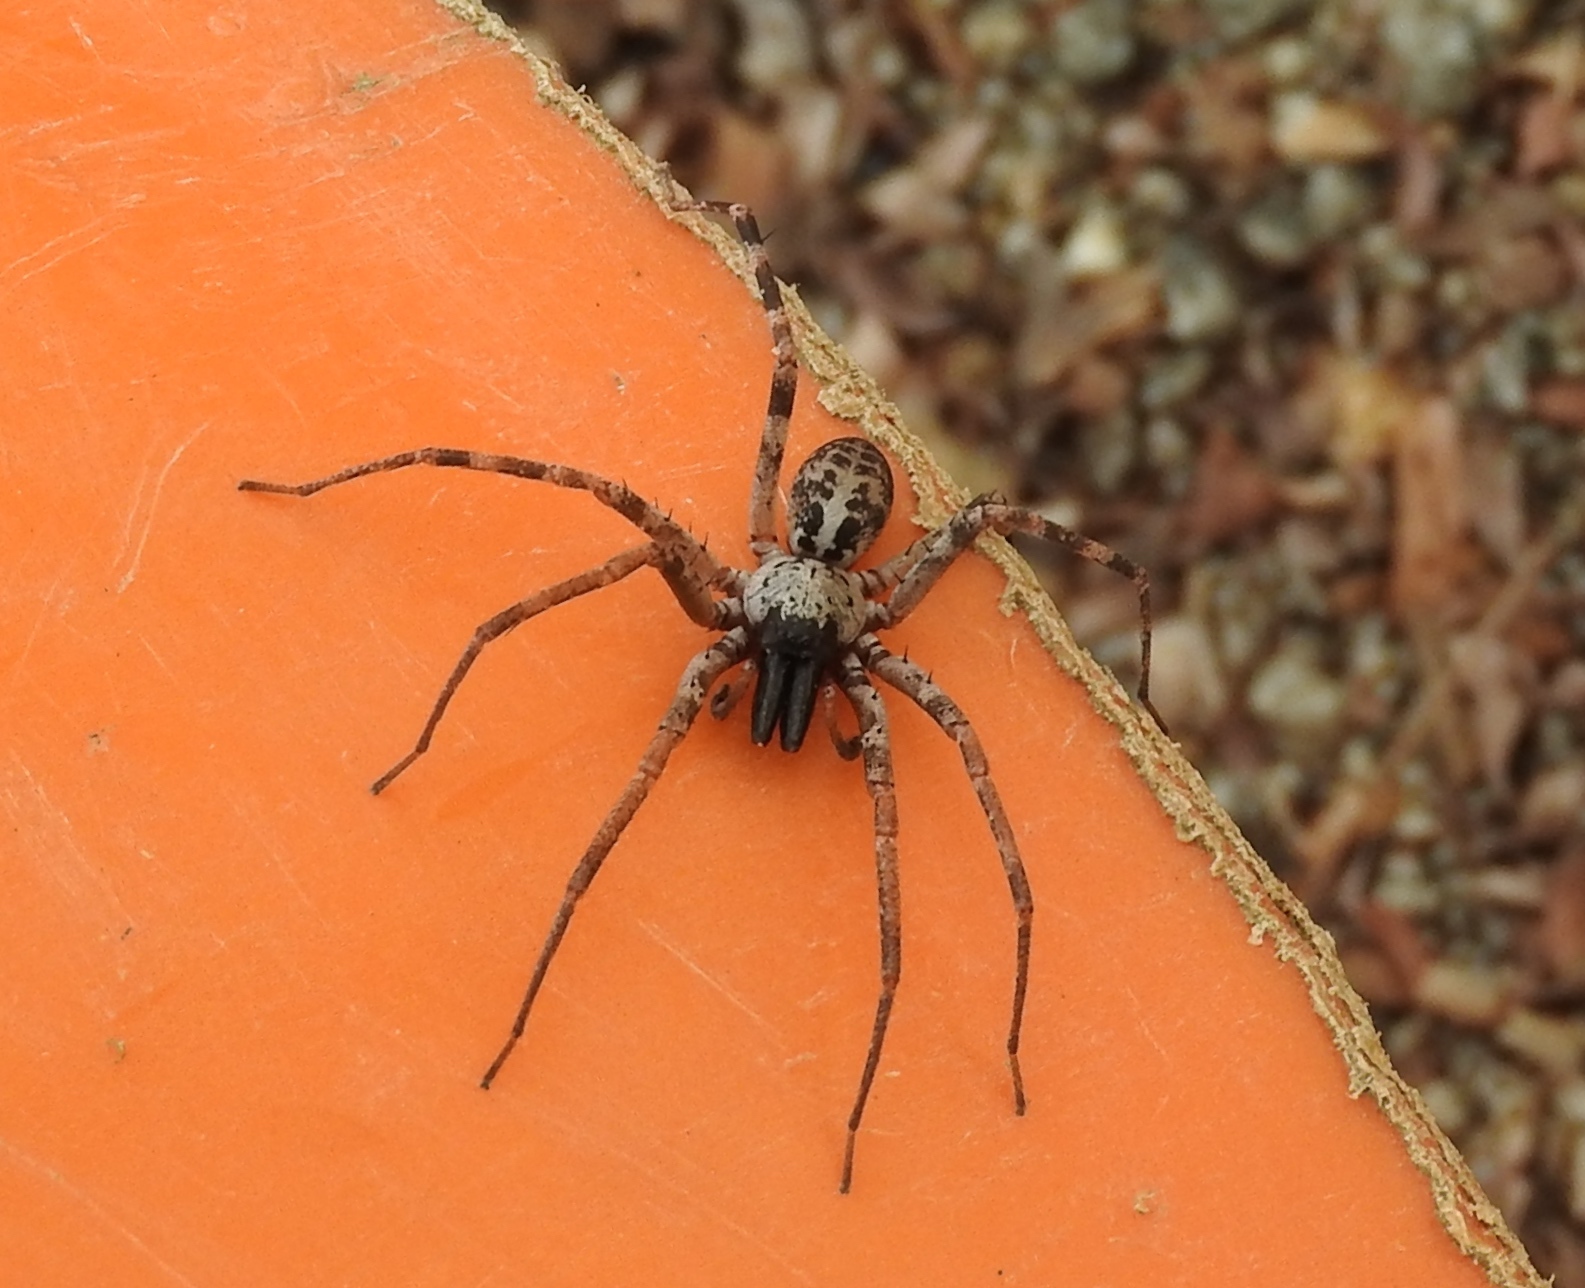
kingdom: Animalia
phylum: Arthropoda
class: Arachnida
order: Araneae
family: Corinnidae
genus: Megalostrata
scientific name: Megalostrata
